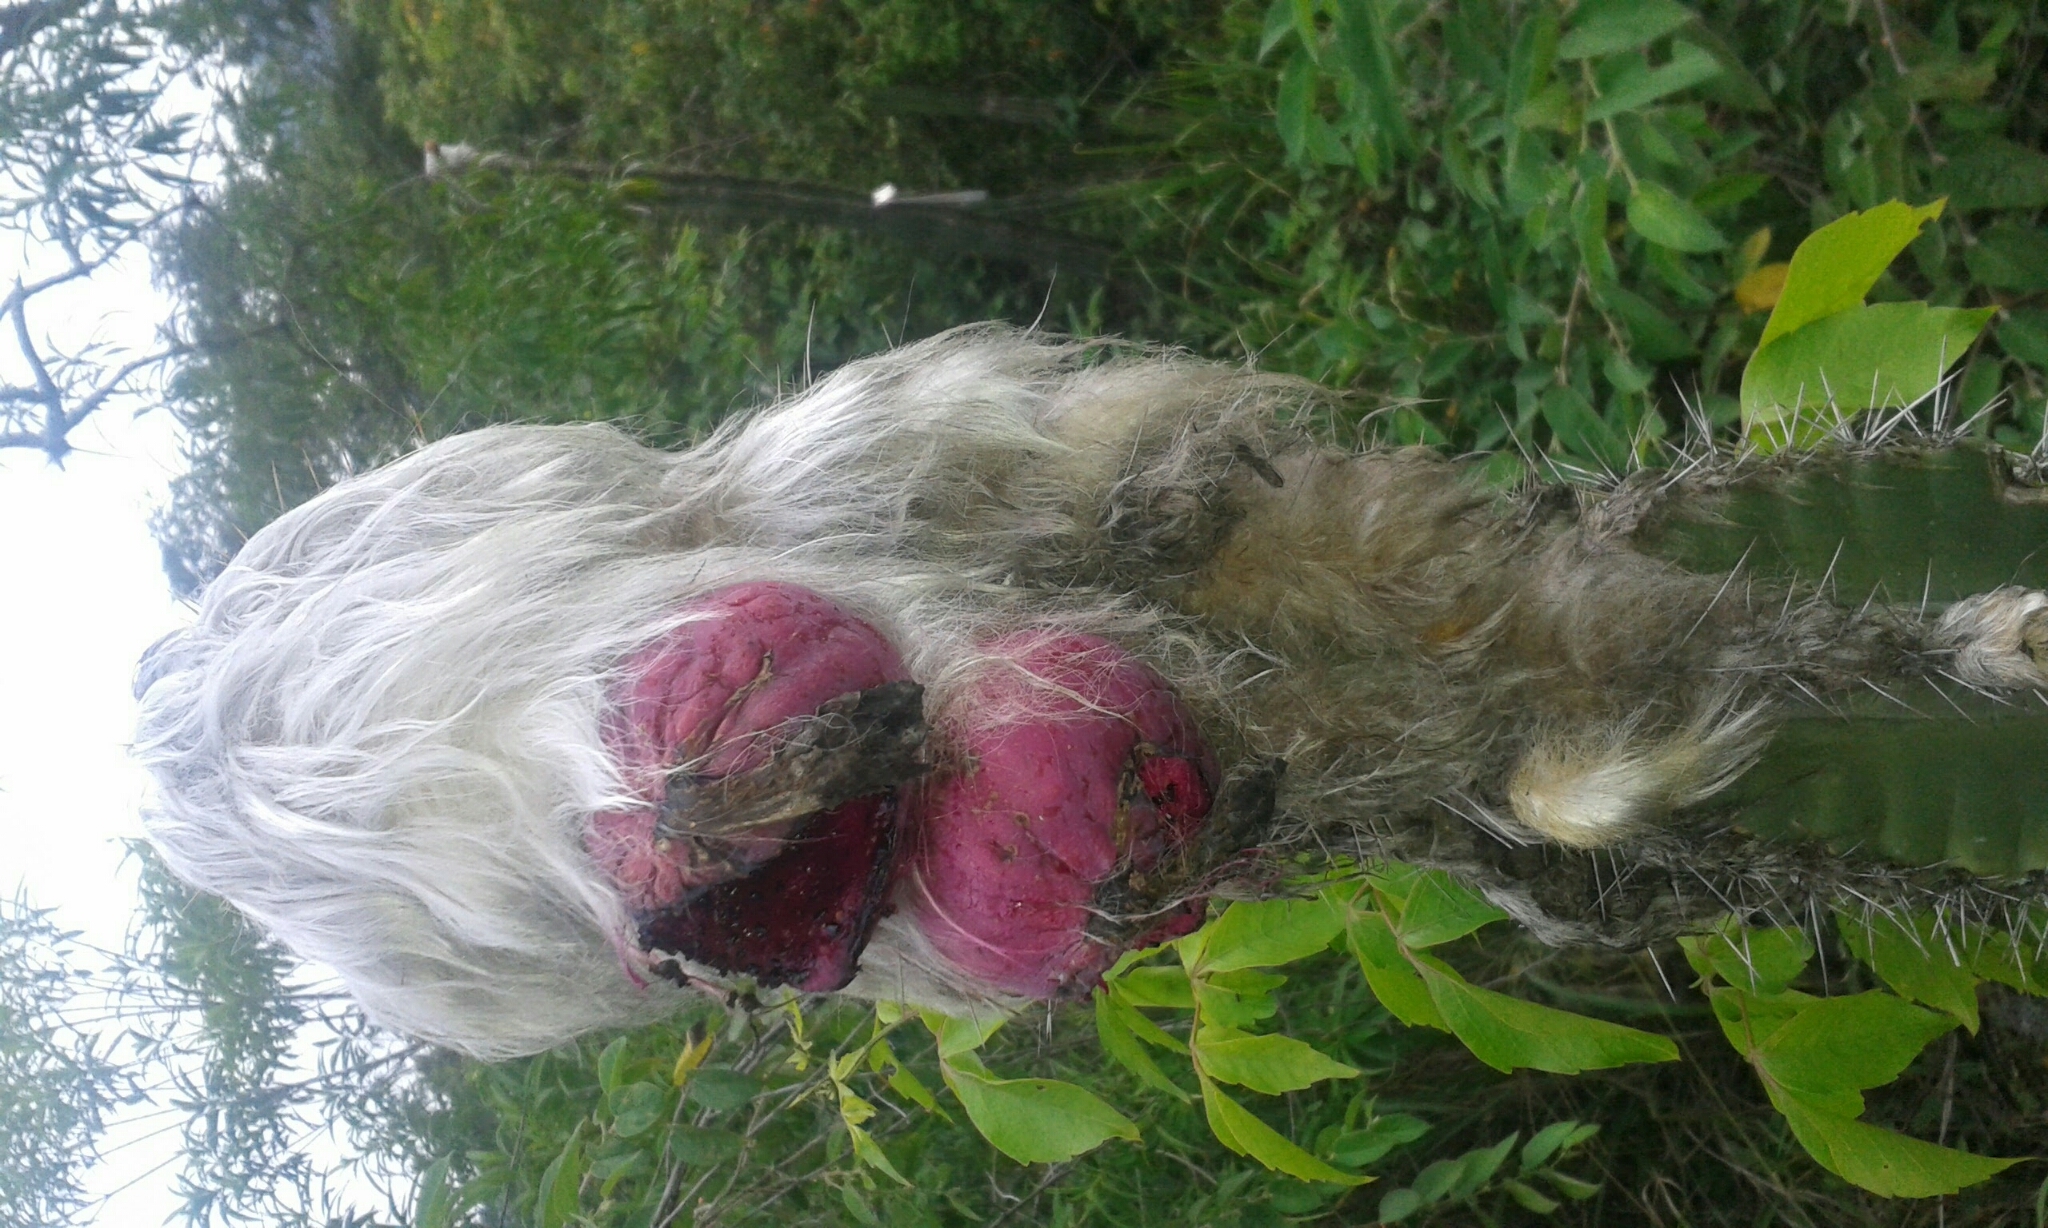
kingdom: Plantae
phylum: Tracheophyta
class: Magnoliopsida
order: Caryophyllales
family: Cactaceae
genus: Pilosocereus
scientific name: Pilosocereus leucocephalus
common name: Old man cactus
